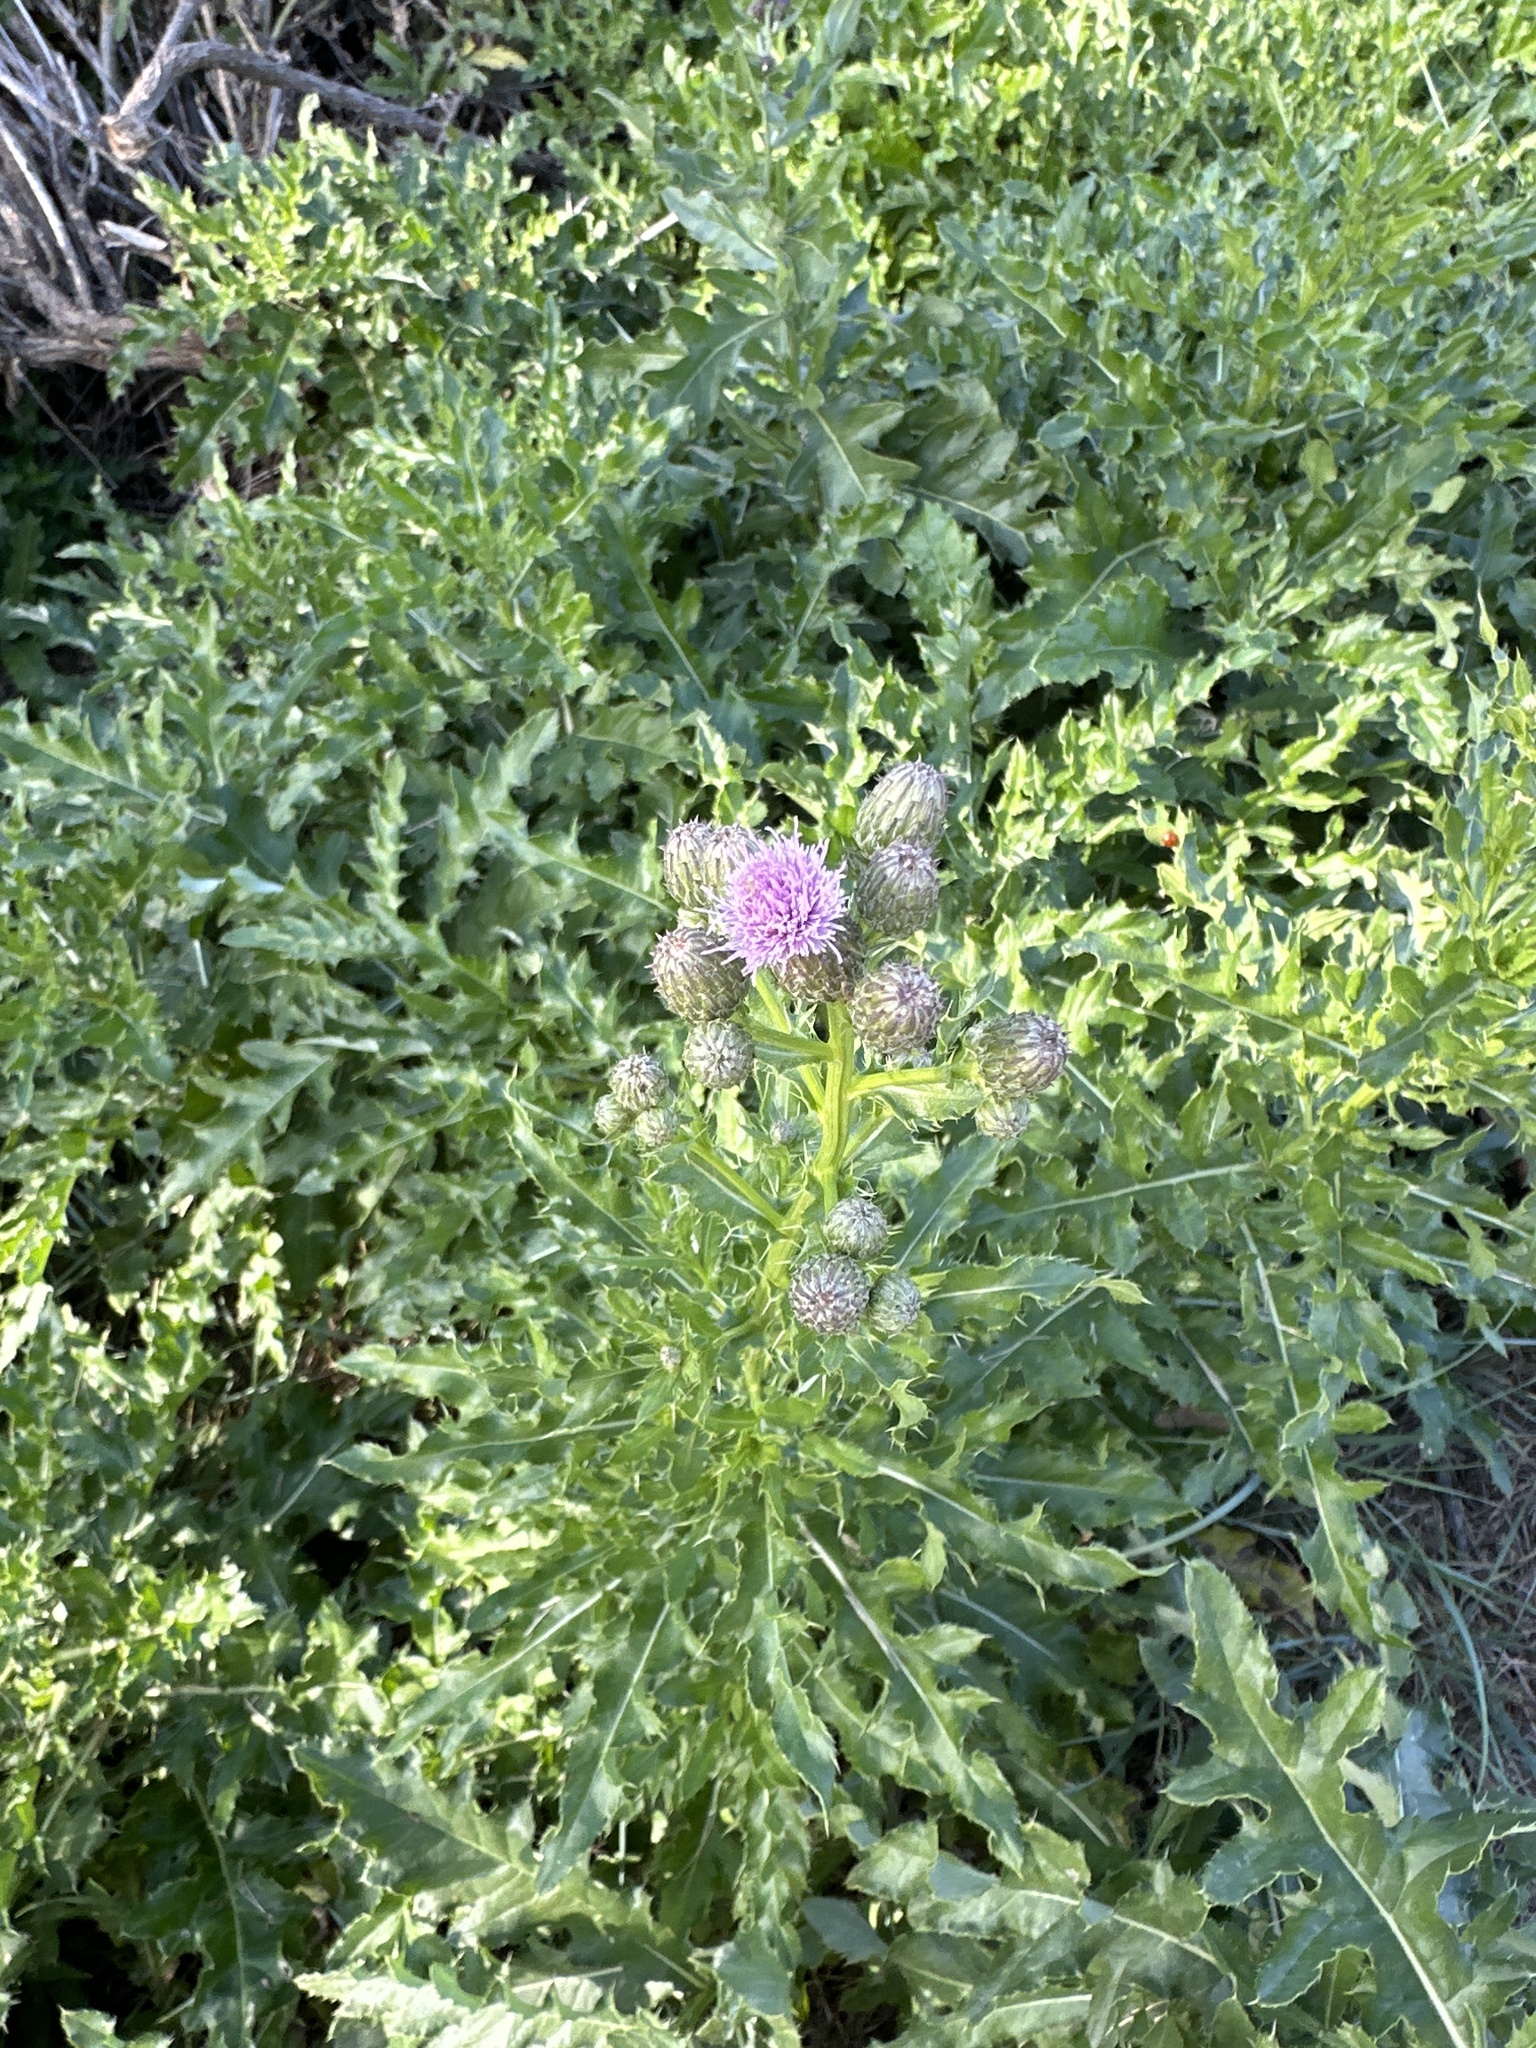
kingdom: Plantae
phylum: Tracheophyta
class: Magnoliopsida
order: Asterales
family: Asteraceae
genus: Cirsium
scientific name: Cirsium arvense
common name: Creeping thistle
